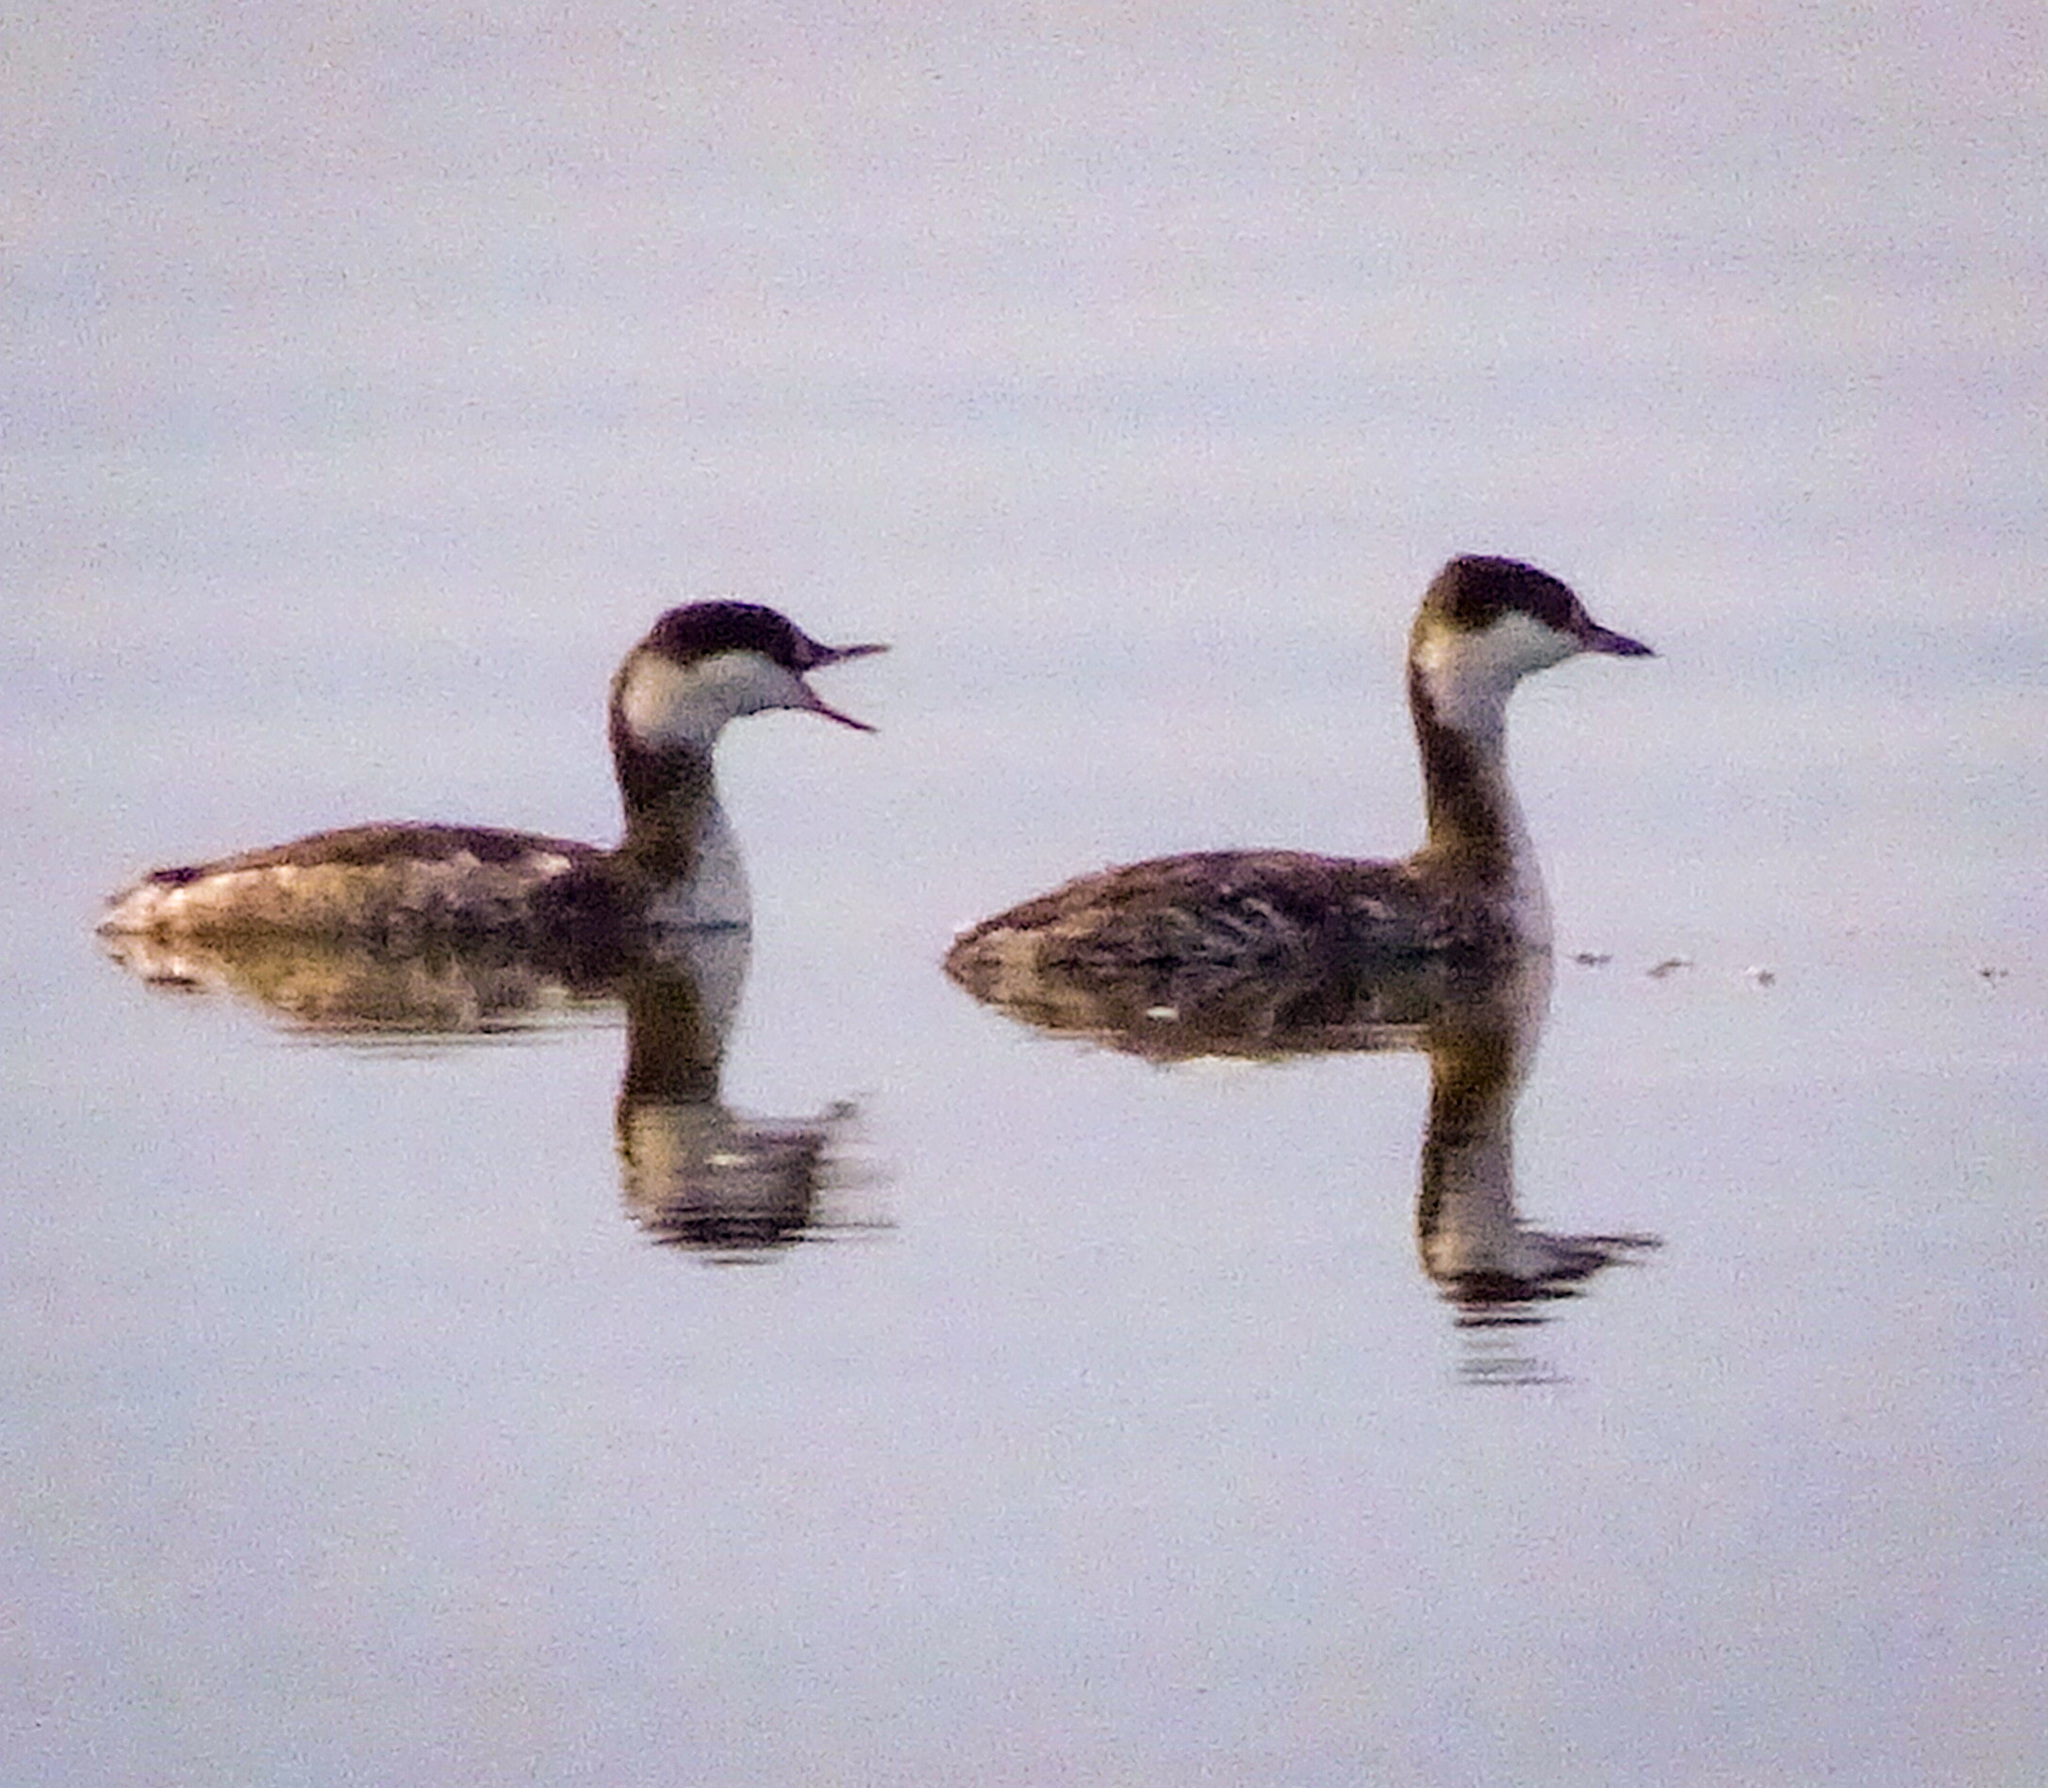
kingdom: Animalia
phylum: Chordata
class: Aves
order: Podicipediformes
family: Podicipedidae
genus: Podiceps
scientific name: Podiceps auritus
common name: Horned grebe
